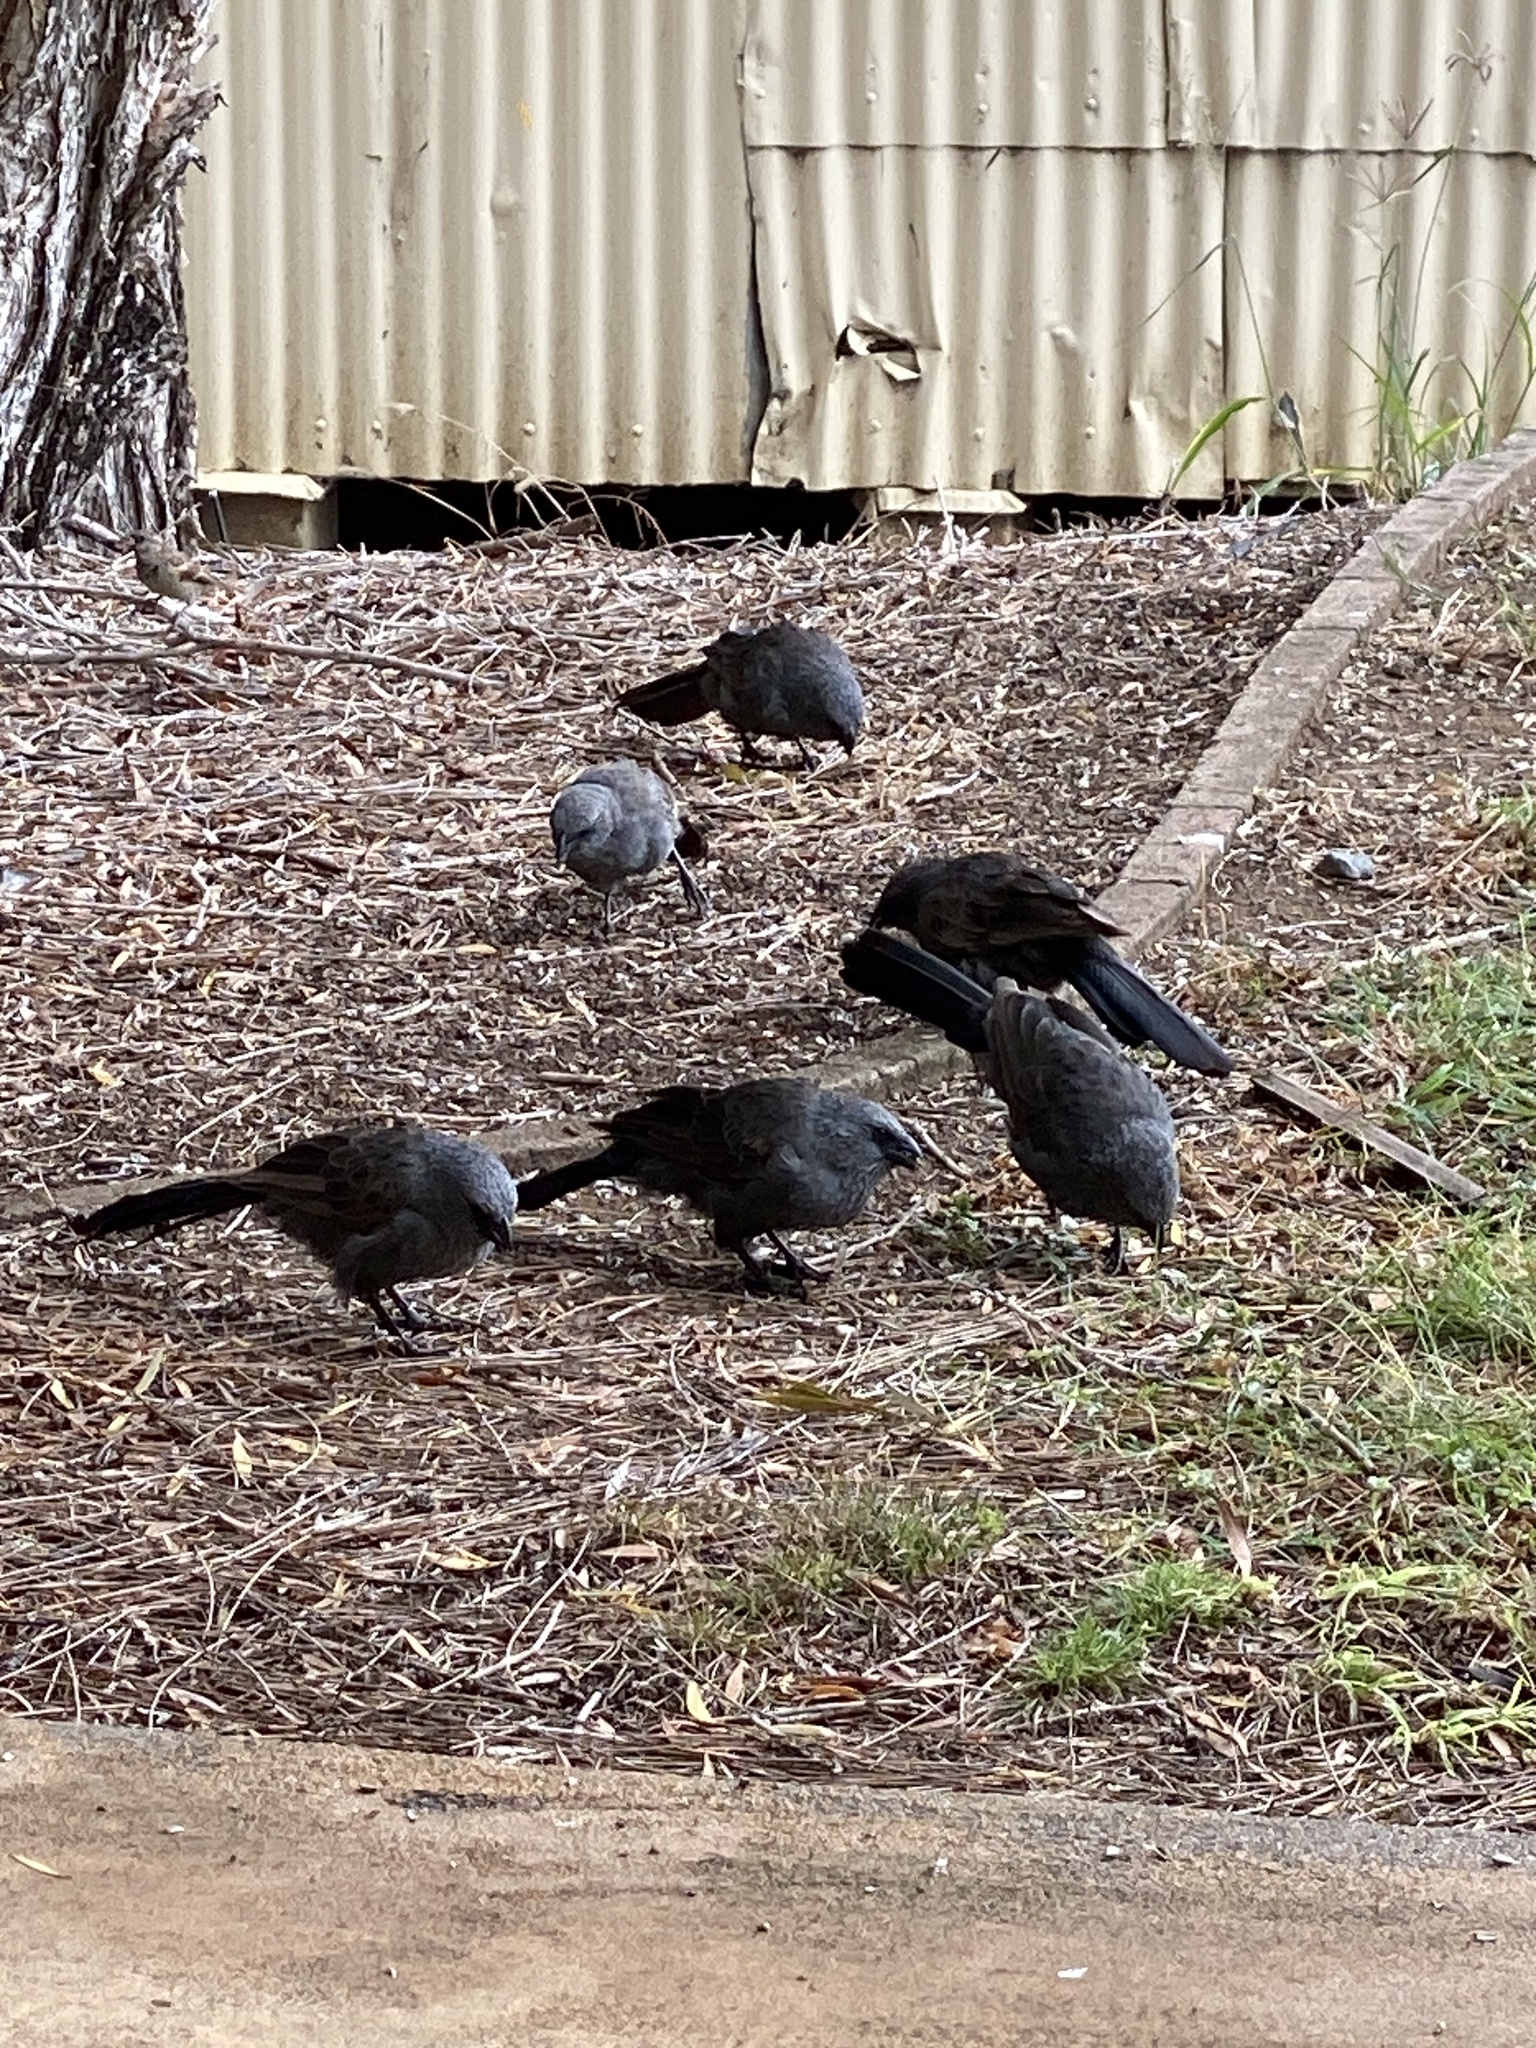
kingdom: Animalia
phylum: Chordata
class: Aves
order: Passeriformes
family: Corcoracidae
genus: Struthidea
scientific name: Struthidea cinerea
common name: Apostlebird
